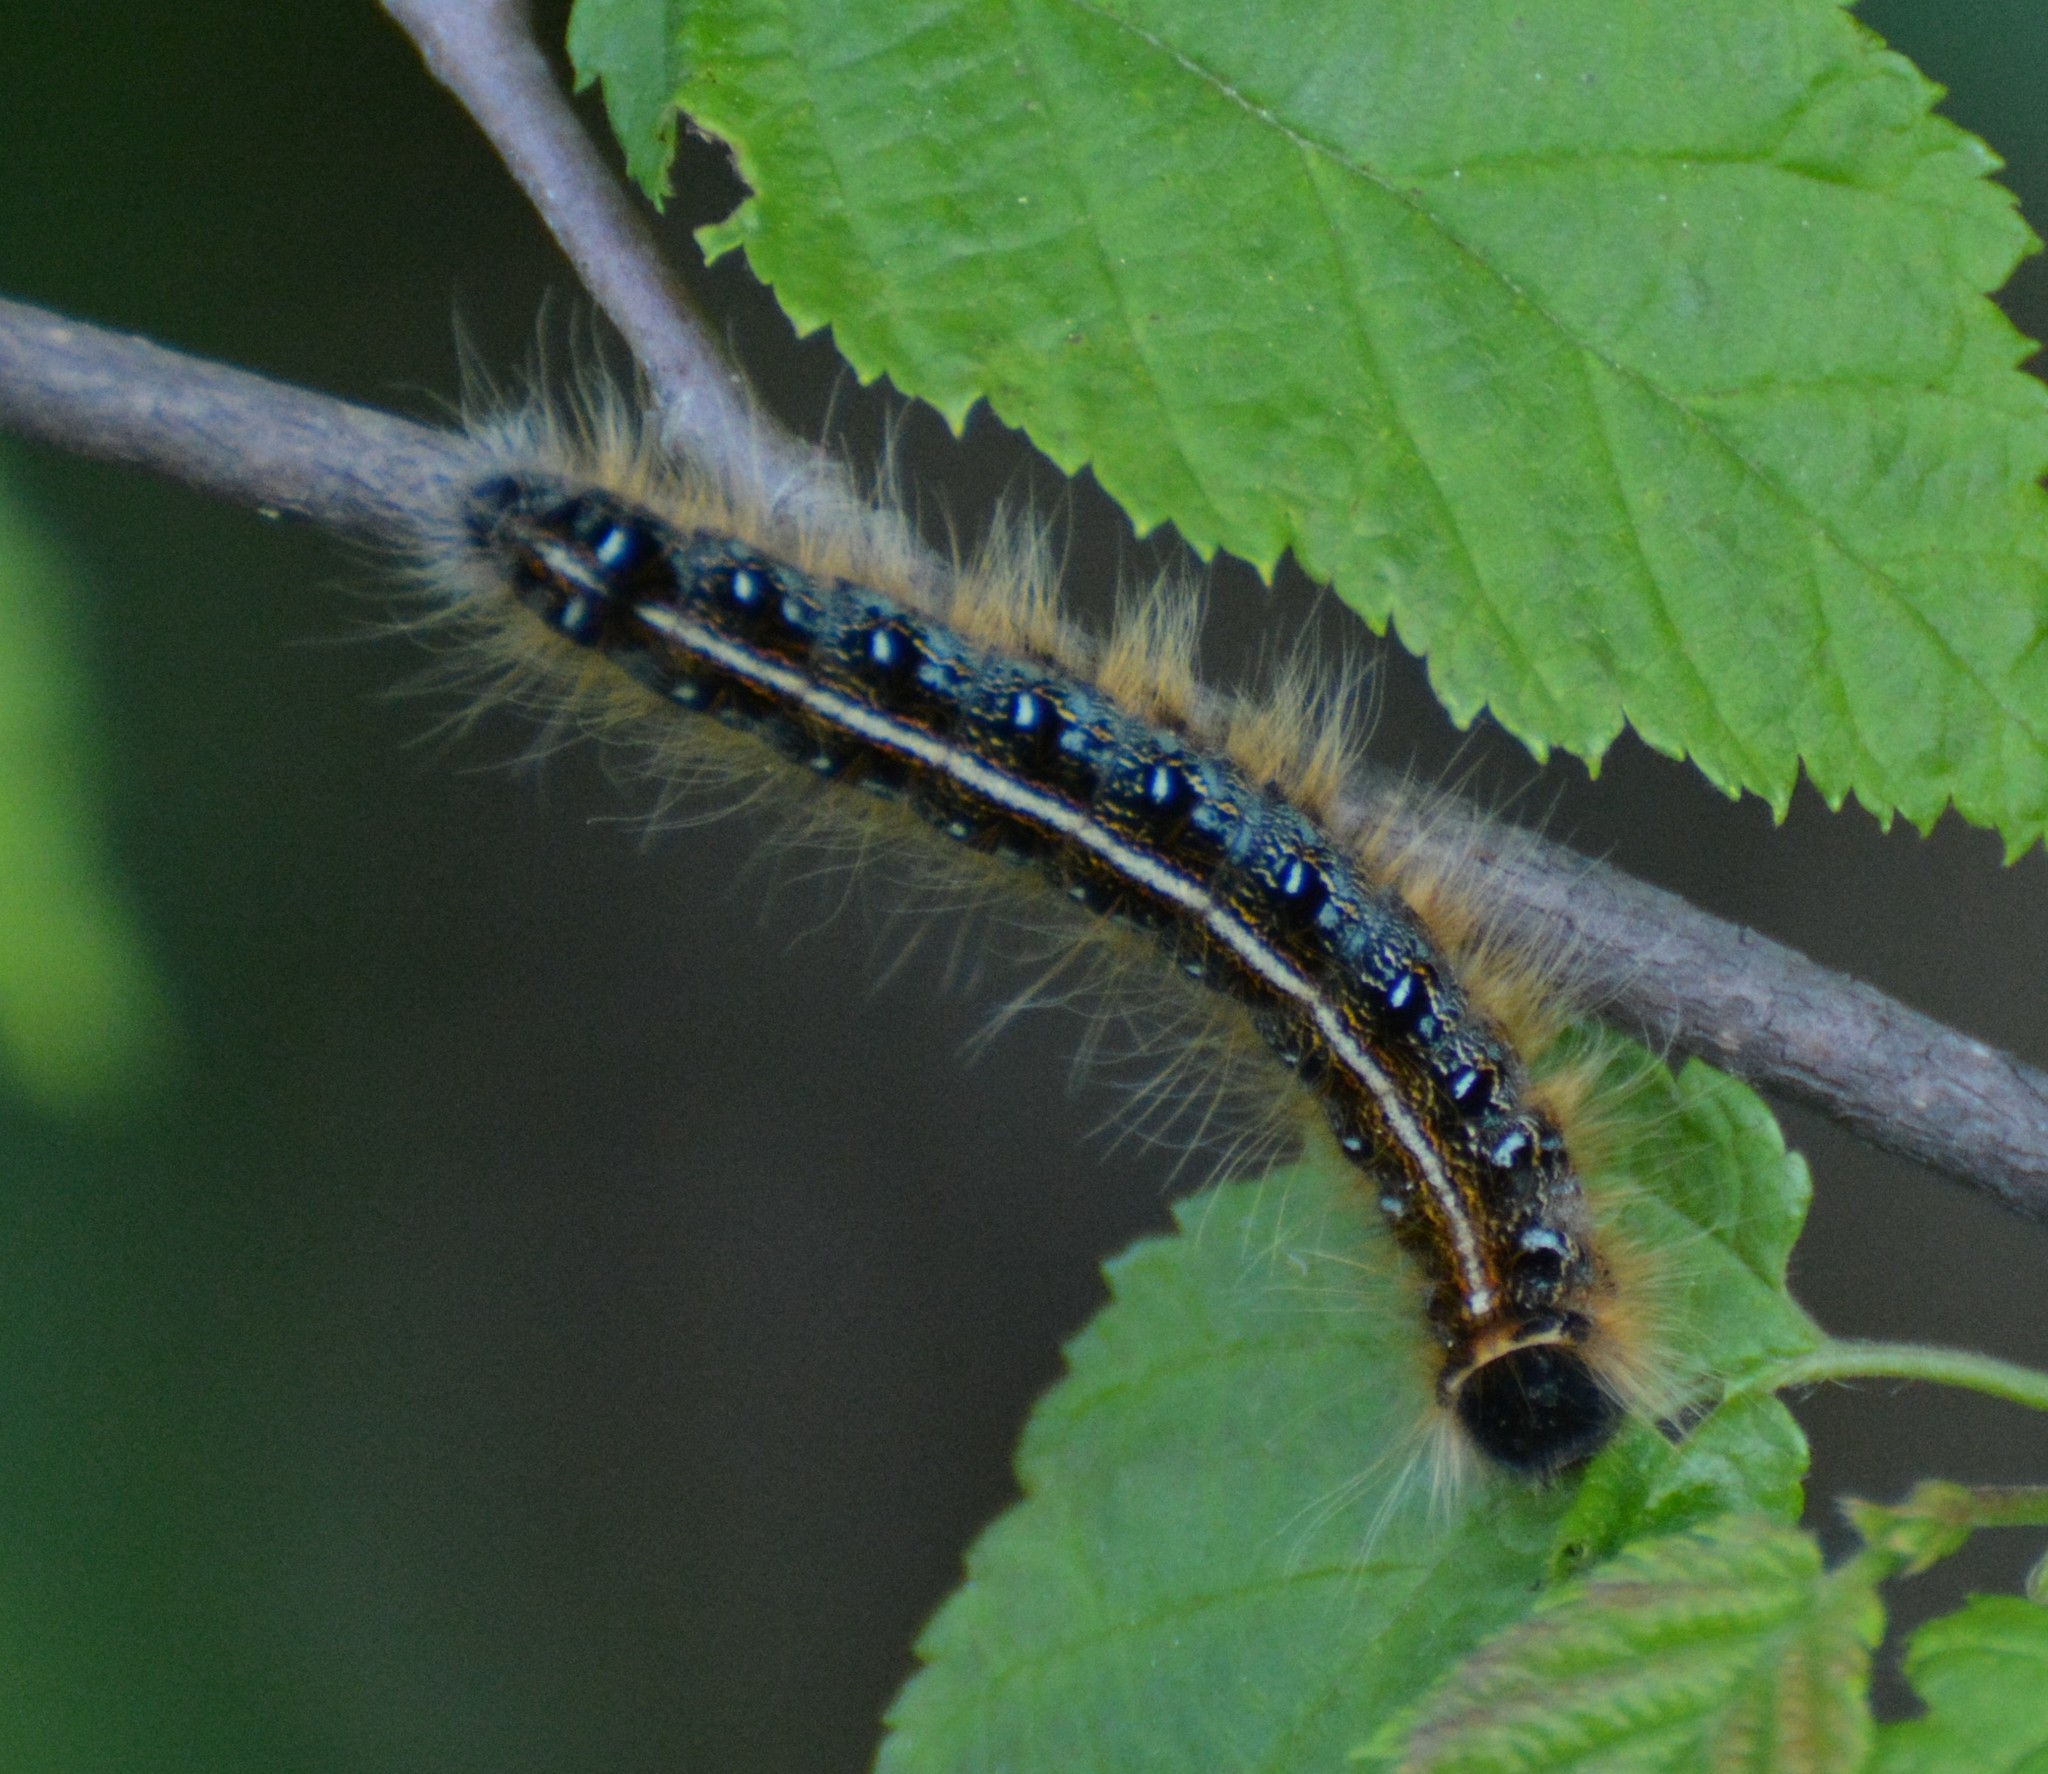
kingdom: Animalia
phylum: Arthropoda
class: Insecta
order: Lepidoptera
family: Lasiocampidae
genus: Malacosoma
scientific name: Malacosoma americana
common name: Eastern tent caterpillar moth
